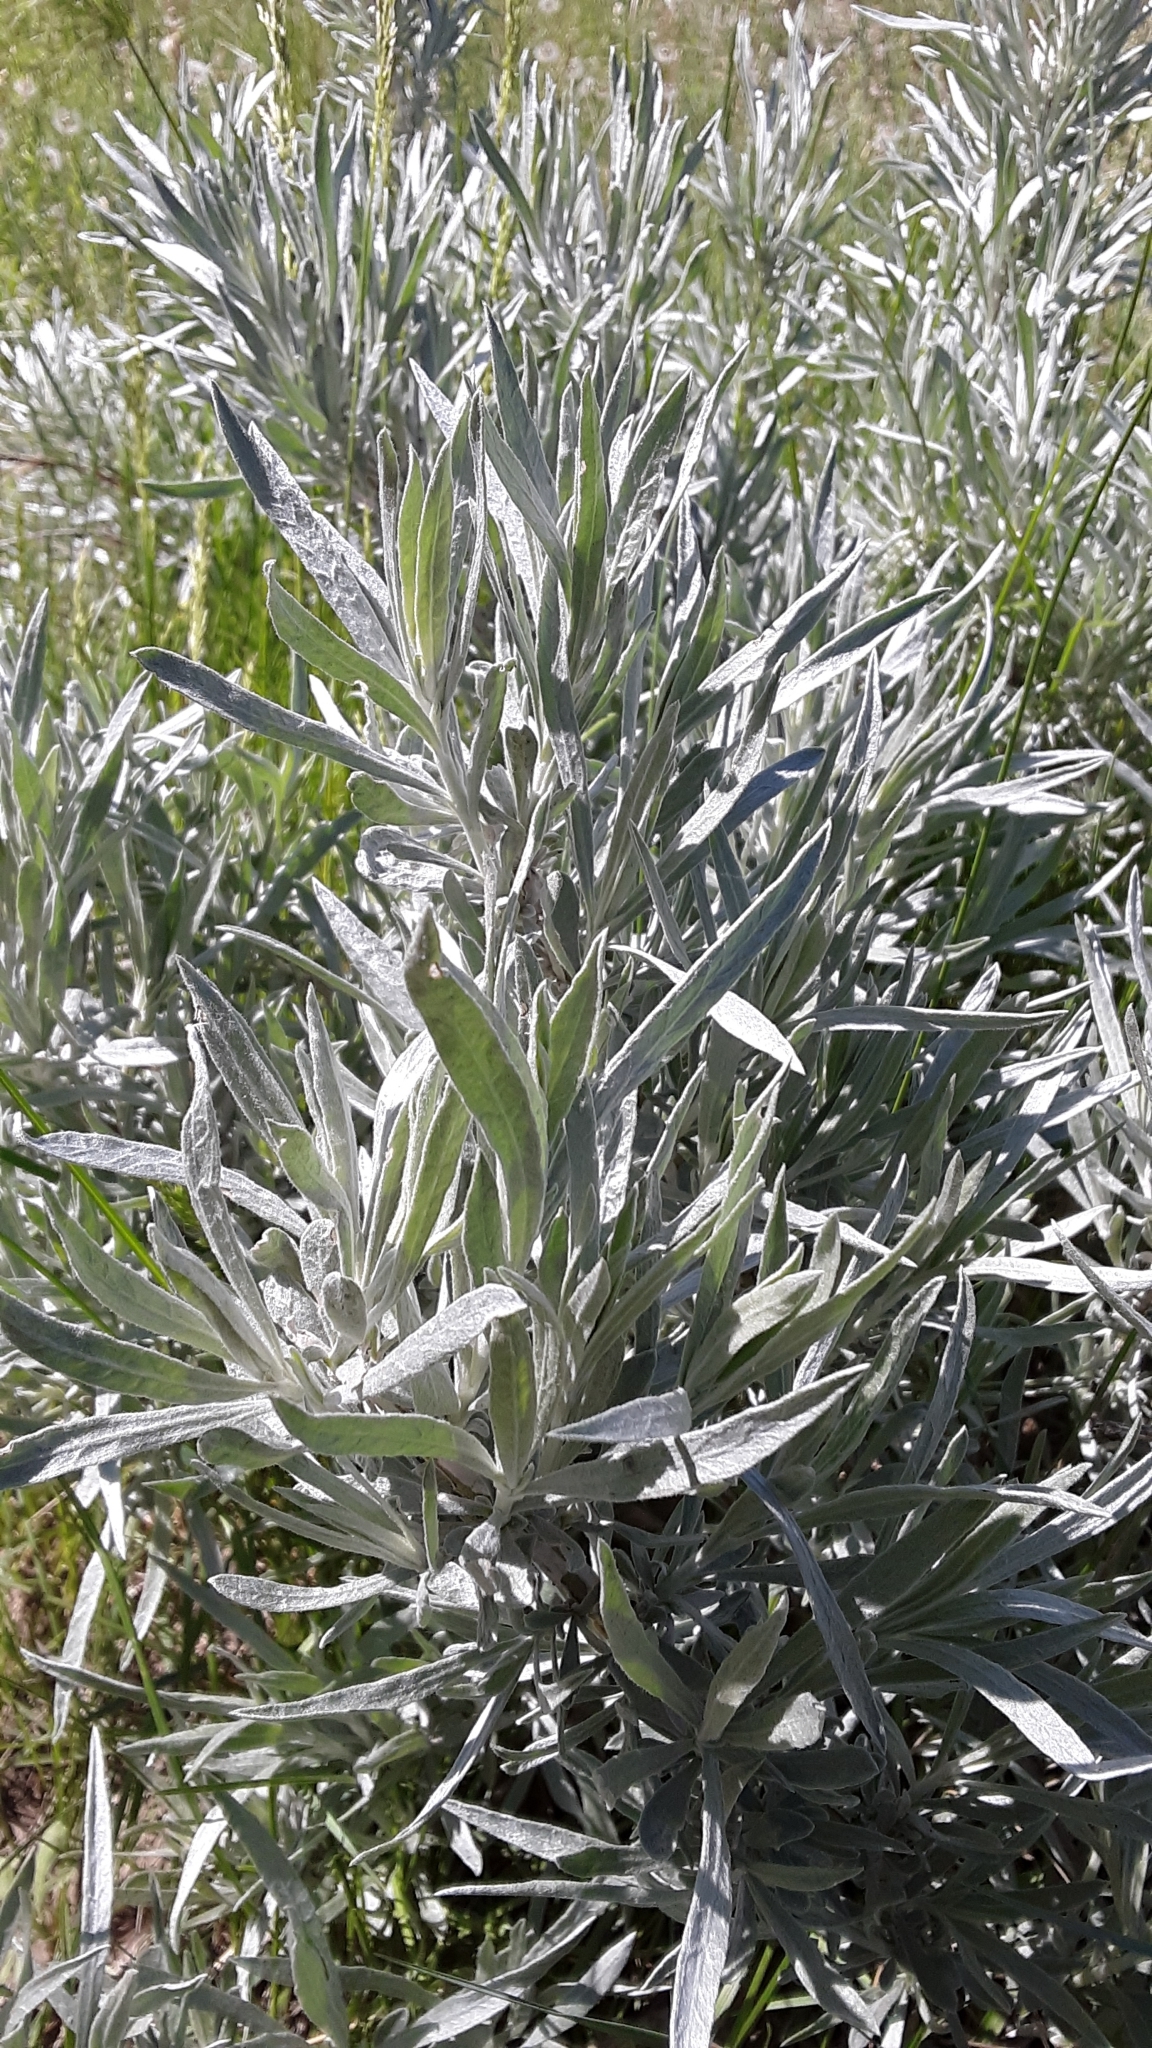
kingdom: Plantae
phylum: Tracheophyta
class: Magnoliopsida
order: Asterales
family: Asteraceae
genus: Artemisia
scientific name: Artemisia cana
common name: Silver sagebrush
